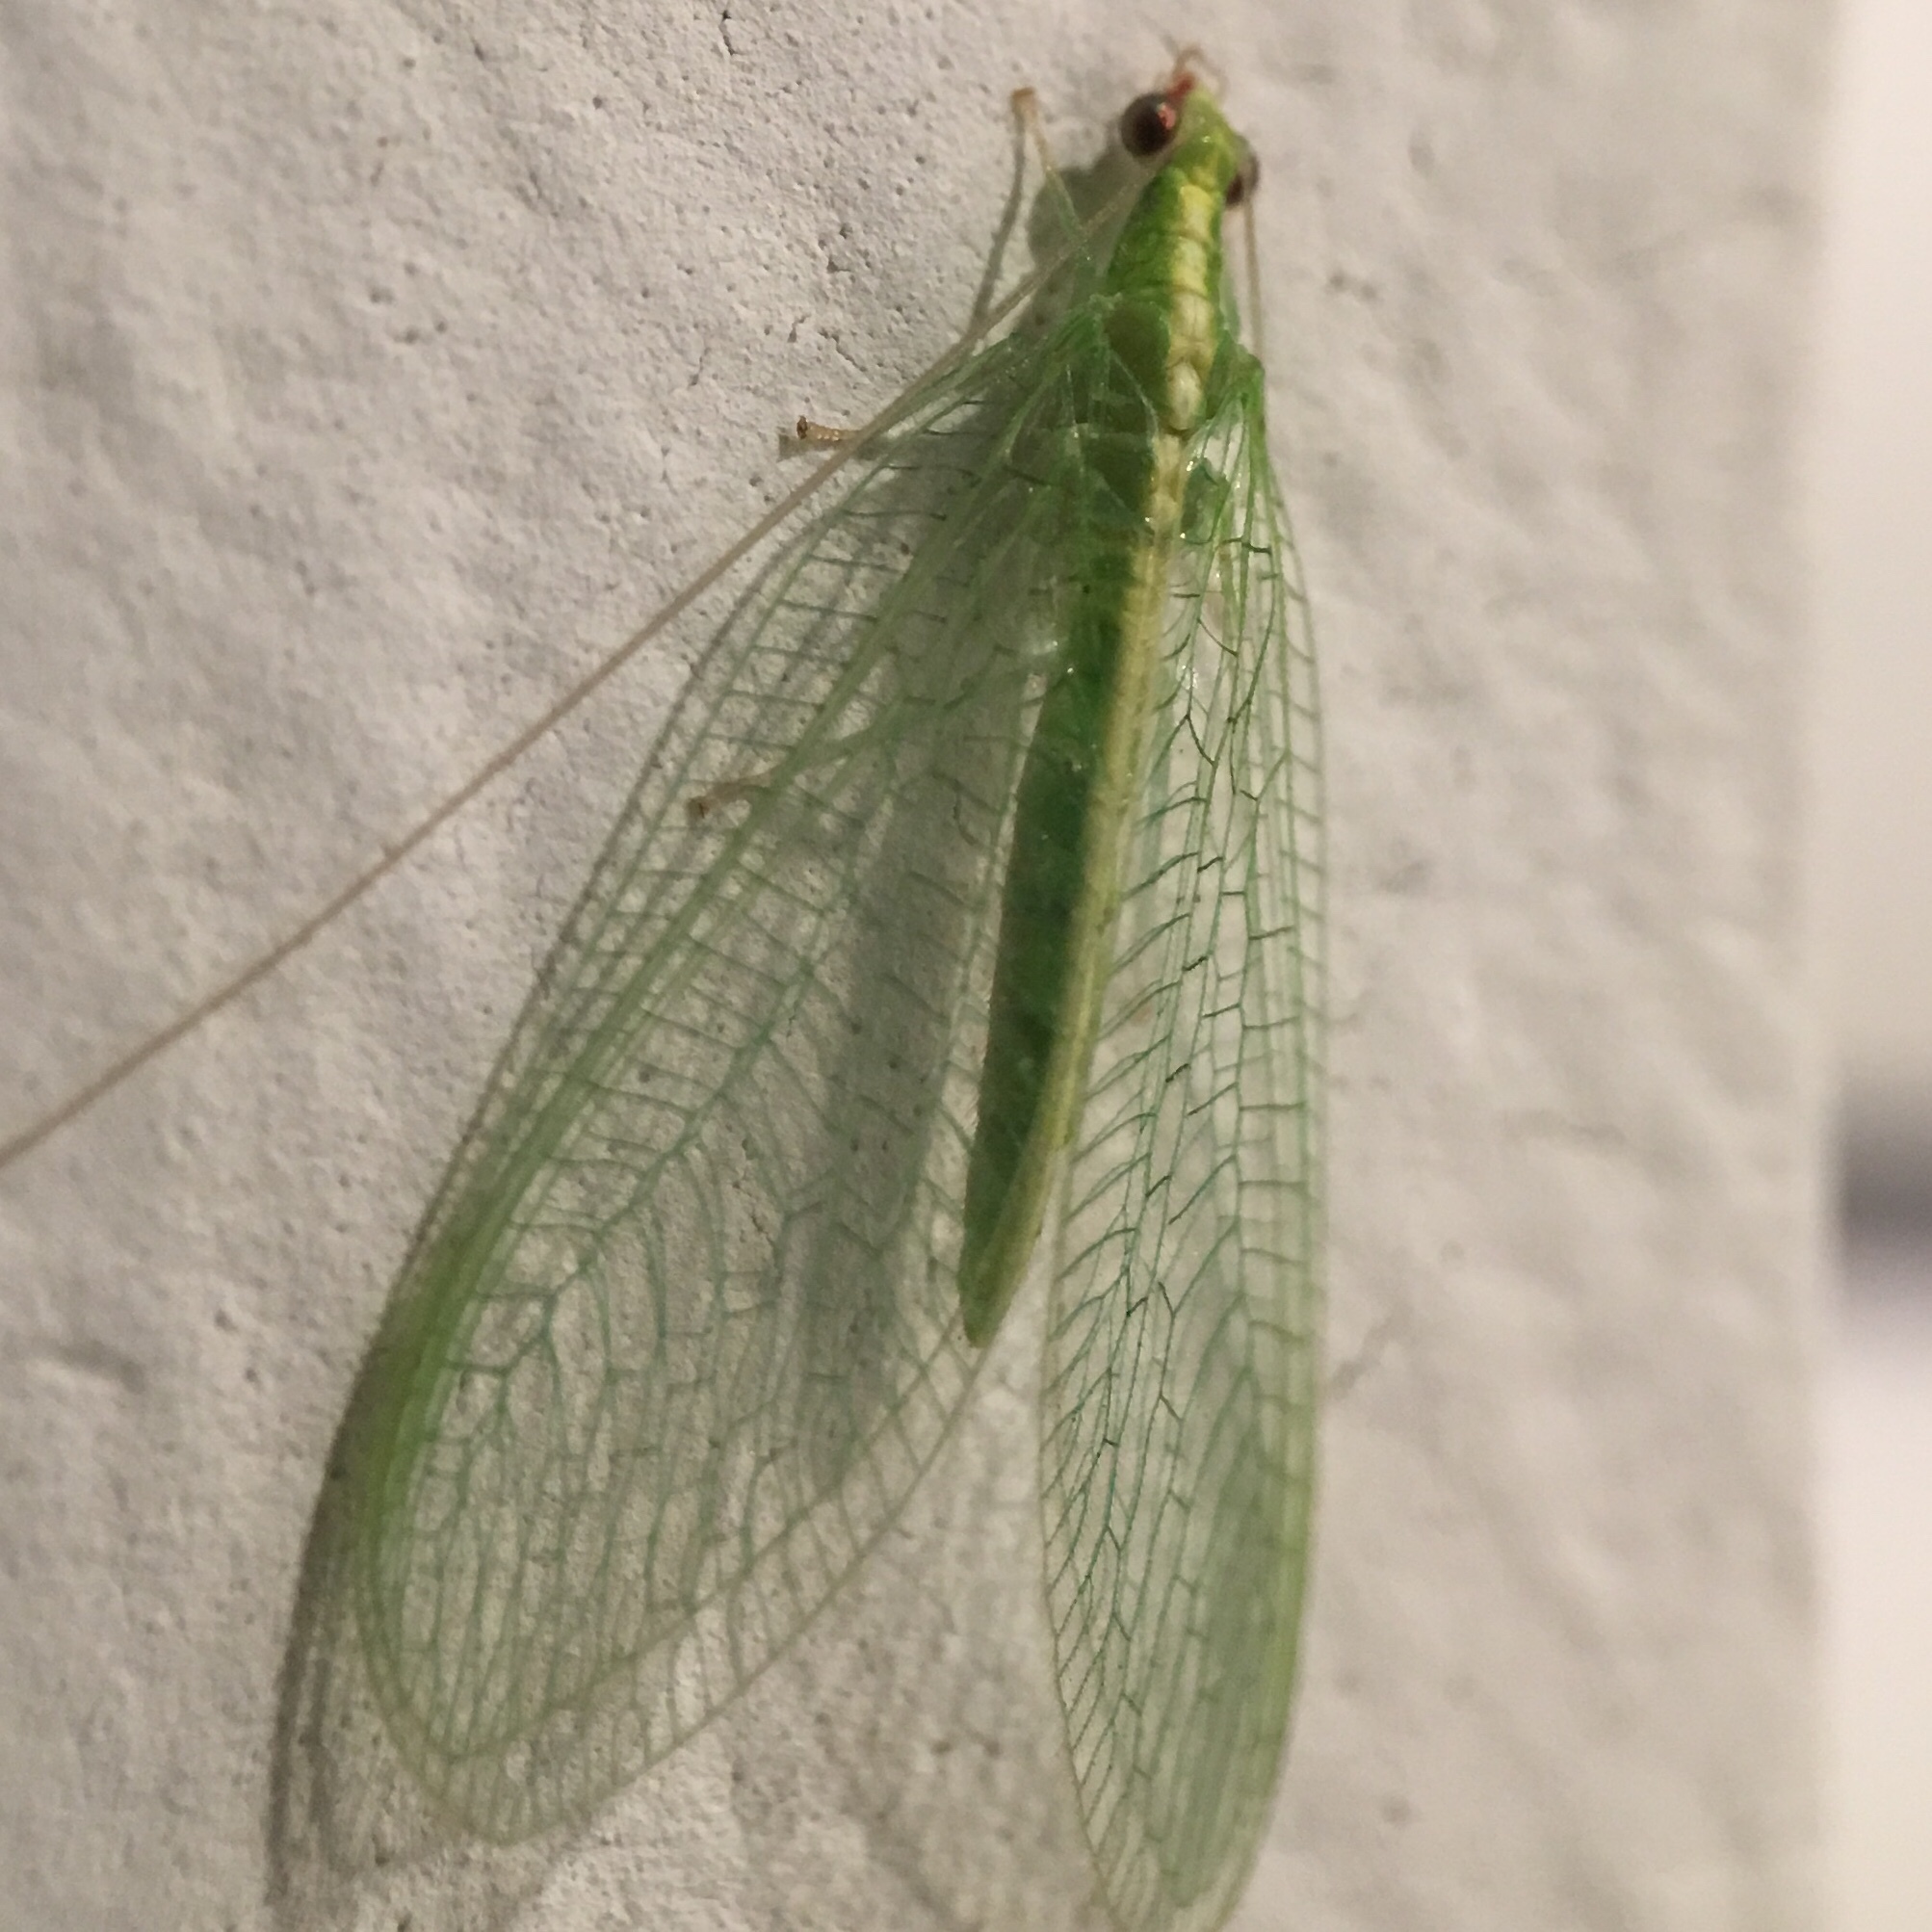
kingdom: Animalia
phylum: Arthropoda
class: Insecta
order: Neuroptera
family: Chrysopidae
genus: Chrysoperla
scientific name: Chrysoperla
